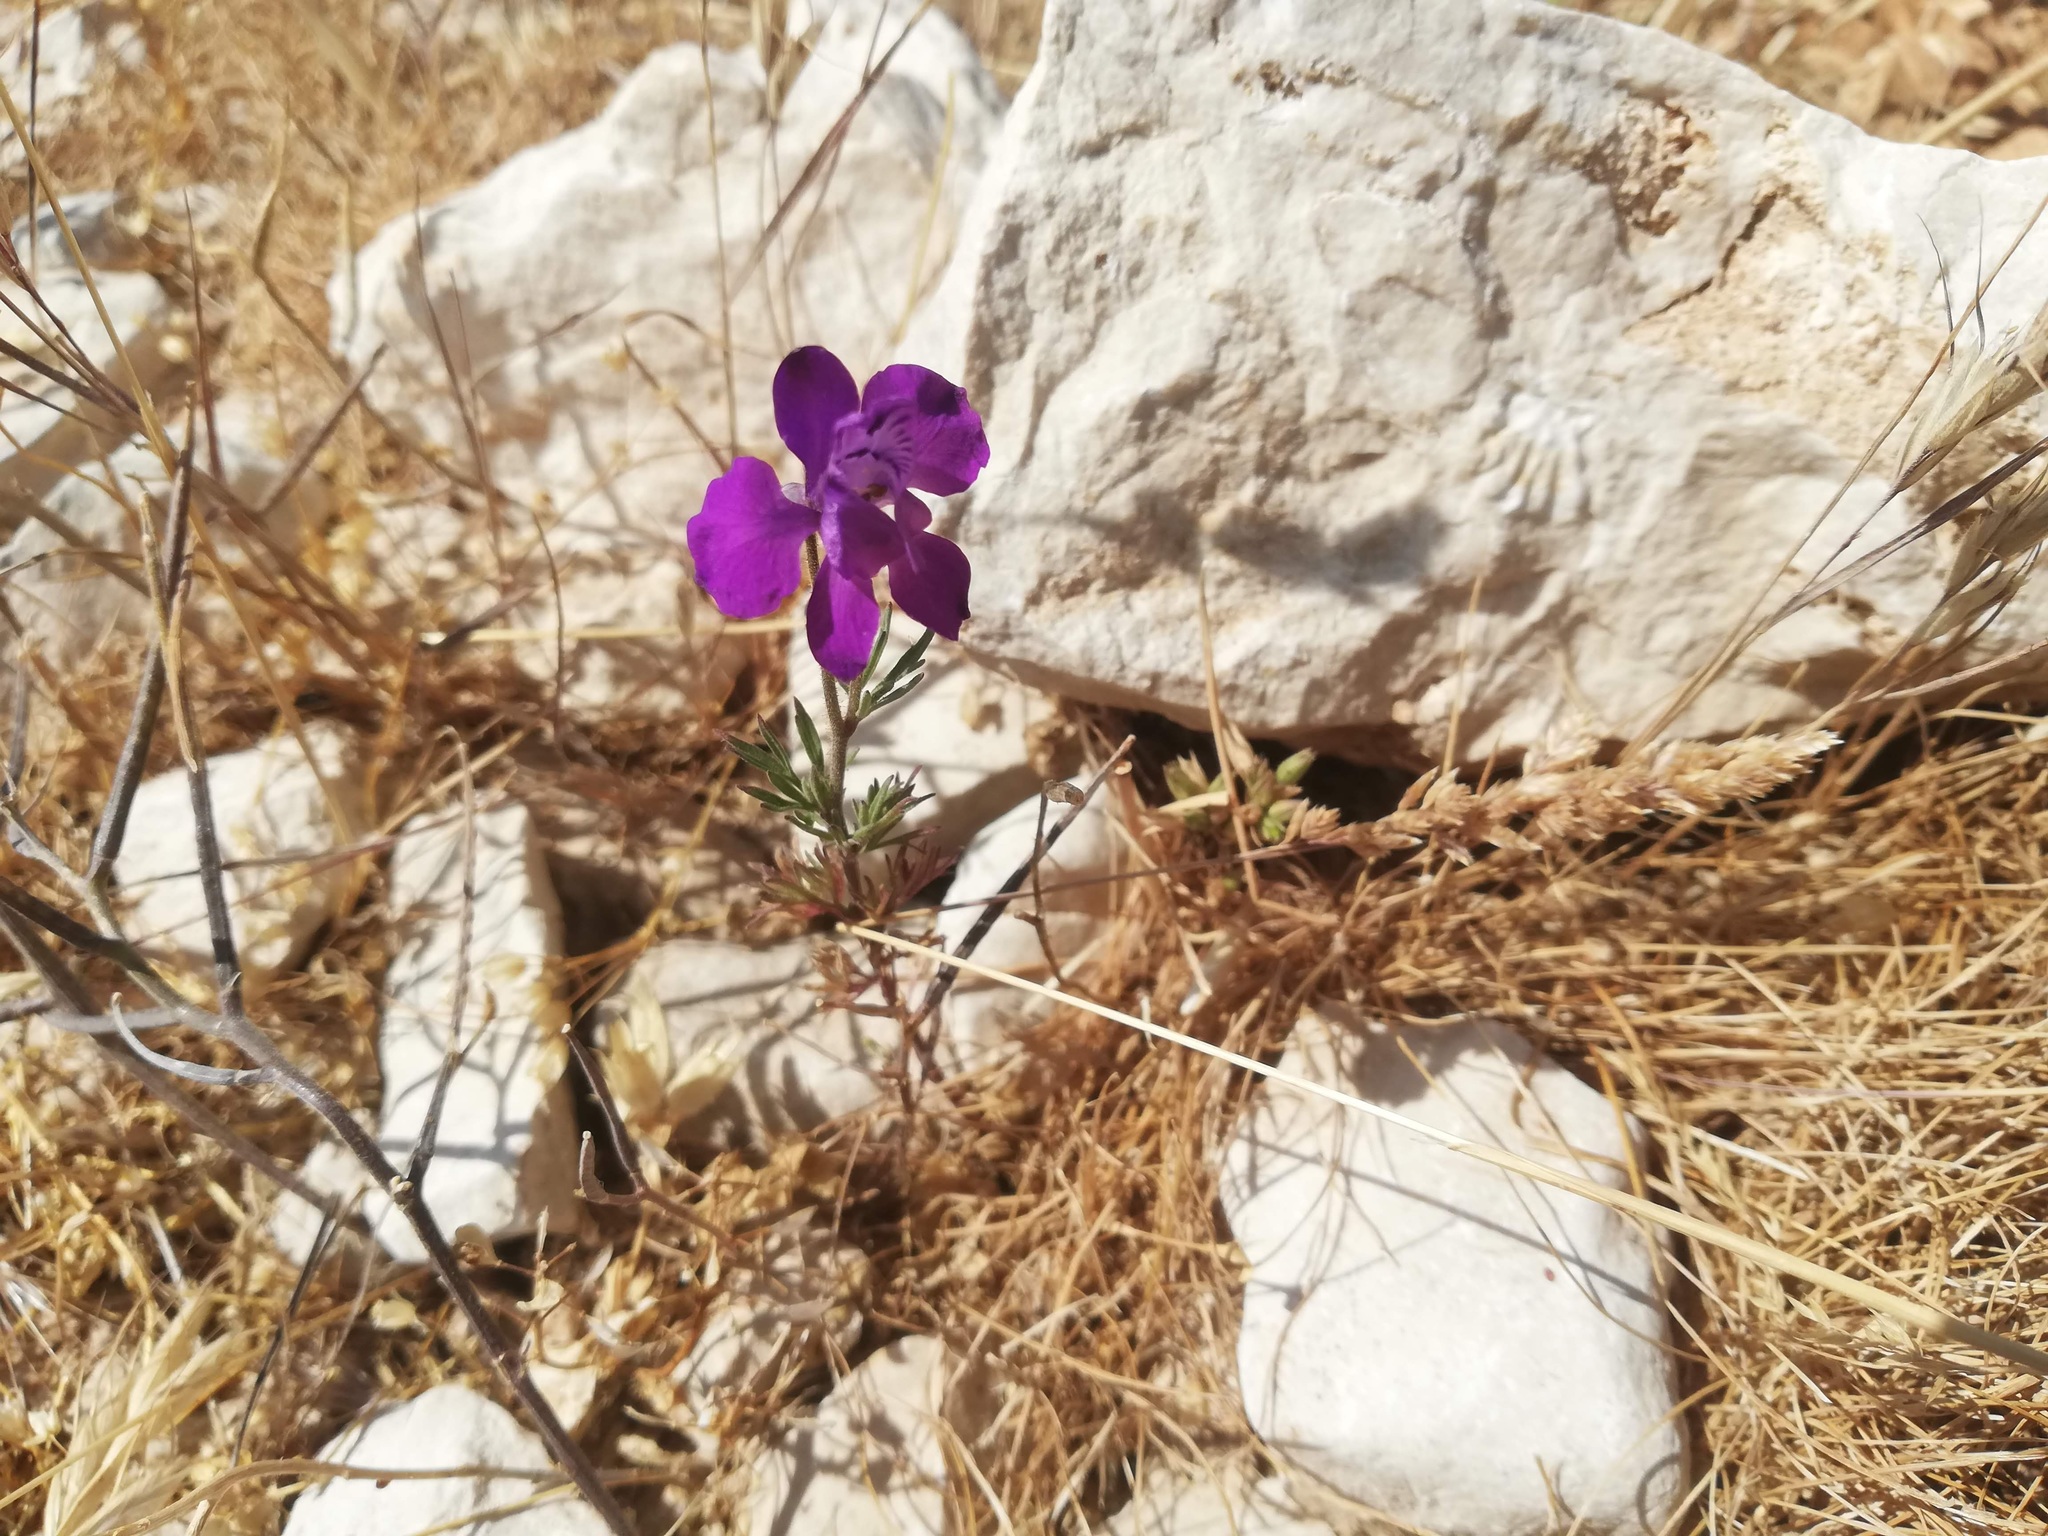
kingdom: Plantae
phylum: Tracheophyta
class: Magnoliopsida
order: Ranunculales
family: Ranunculaceae
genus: Delphinium
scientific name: Delphinium ajacis
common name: Doubtful knight's-spur
